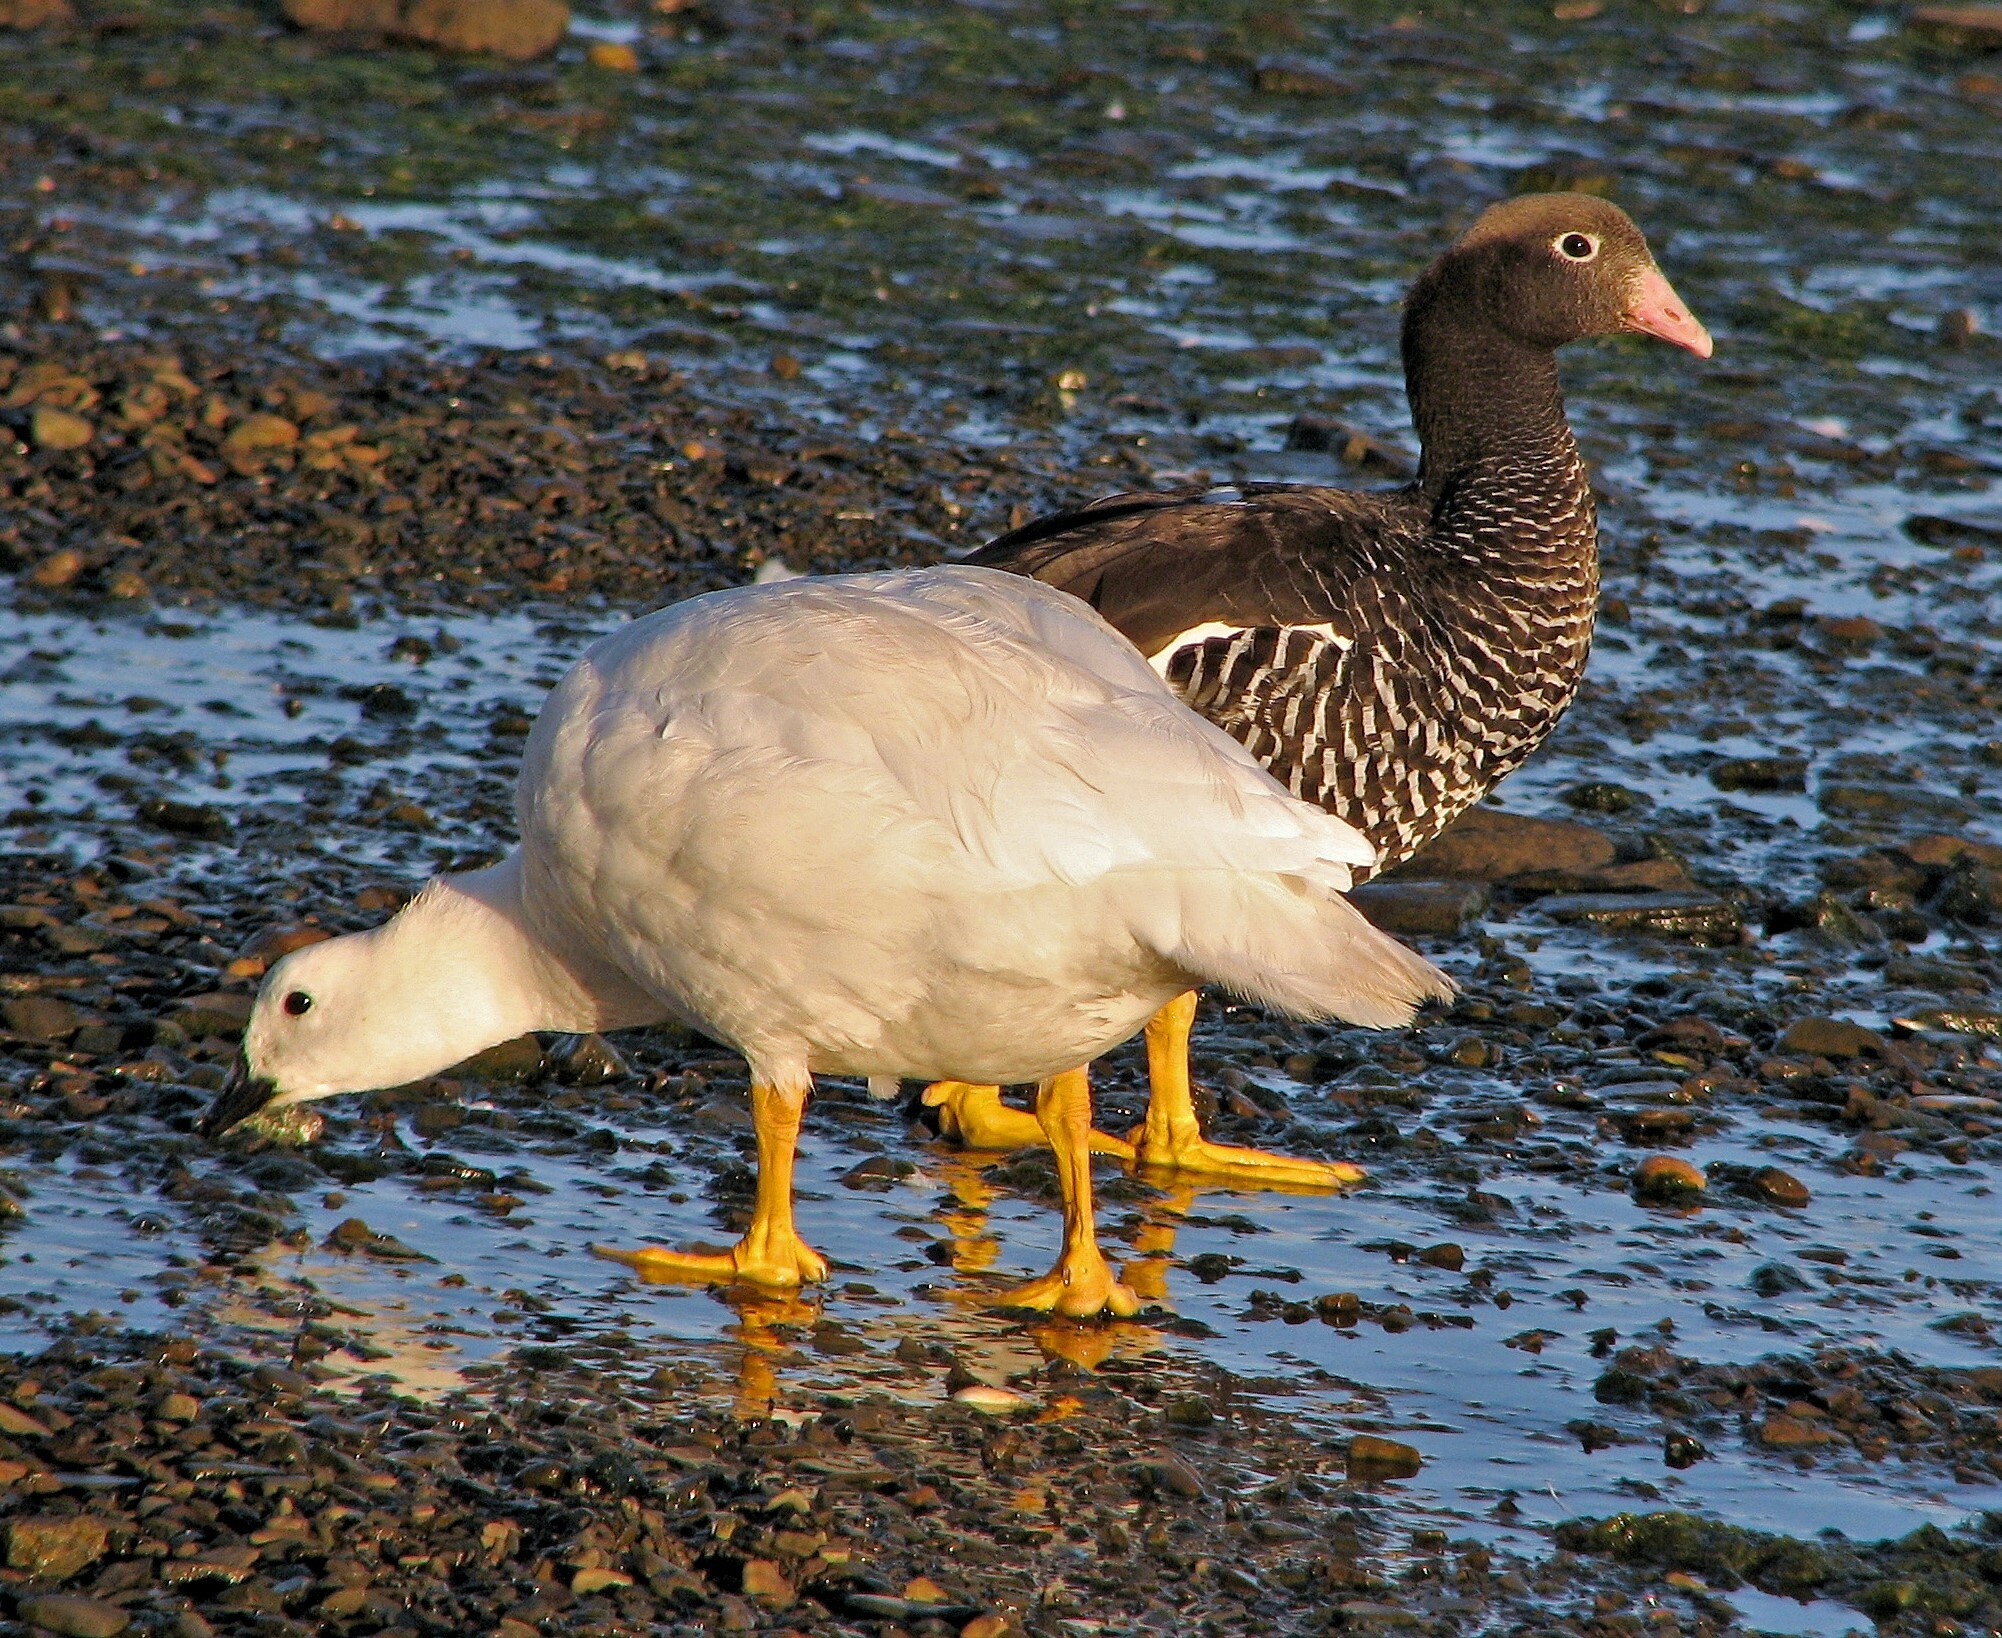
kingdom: Animalia
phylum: Chordata
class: Aves
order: Anseriformes
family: Anatidae
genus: Chloephaga
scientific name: Chloephaga hybrida
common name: Kelp goose
